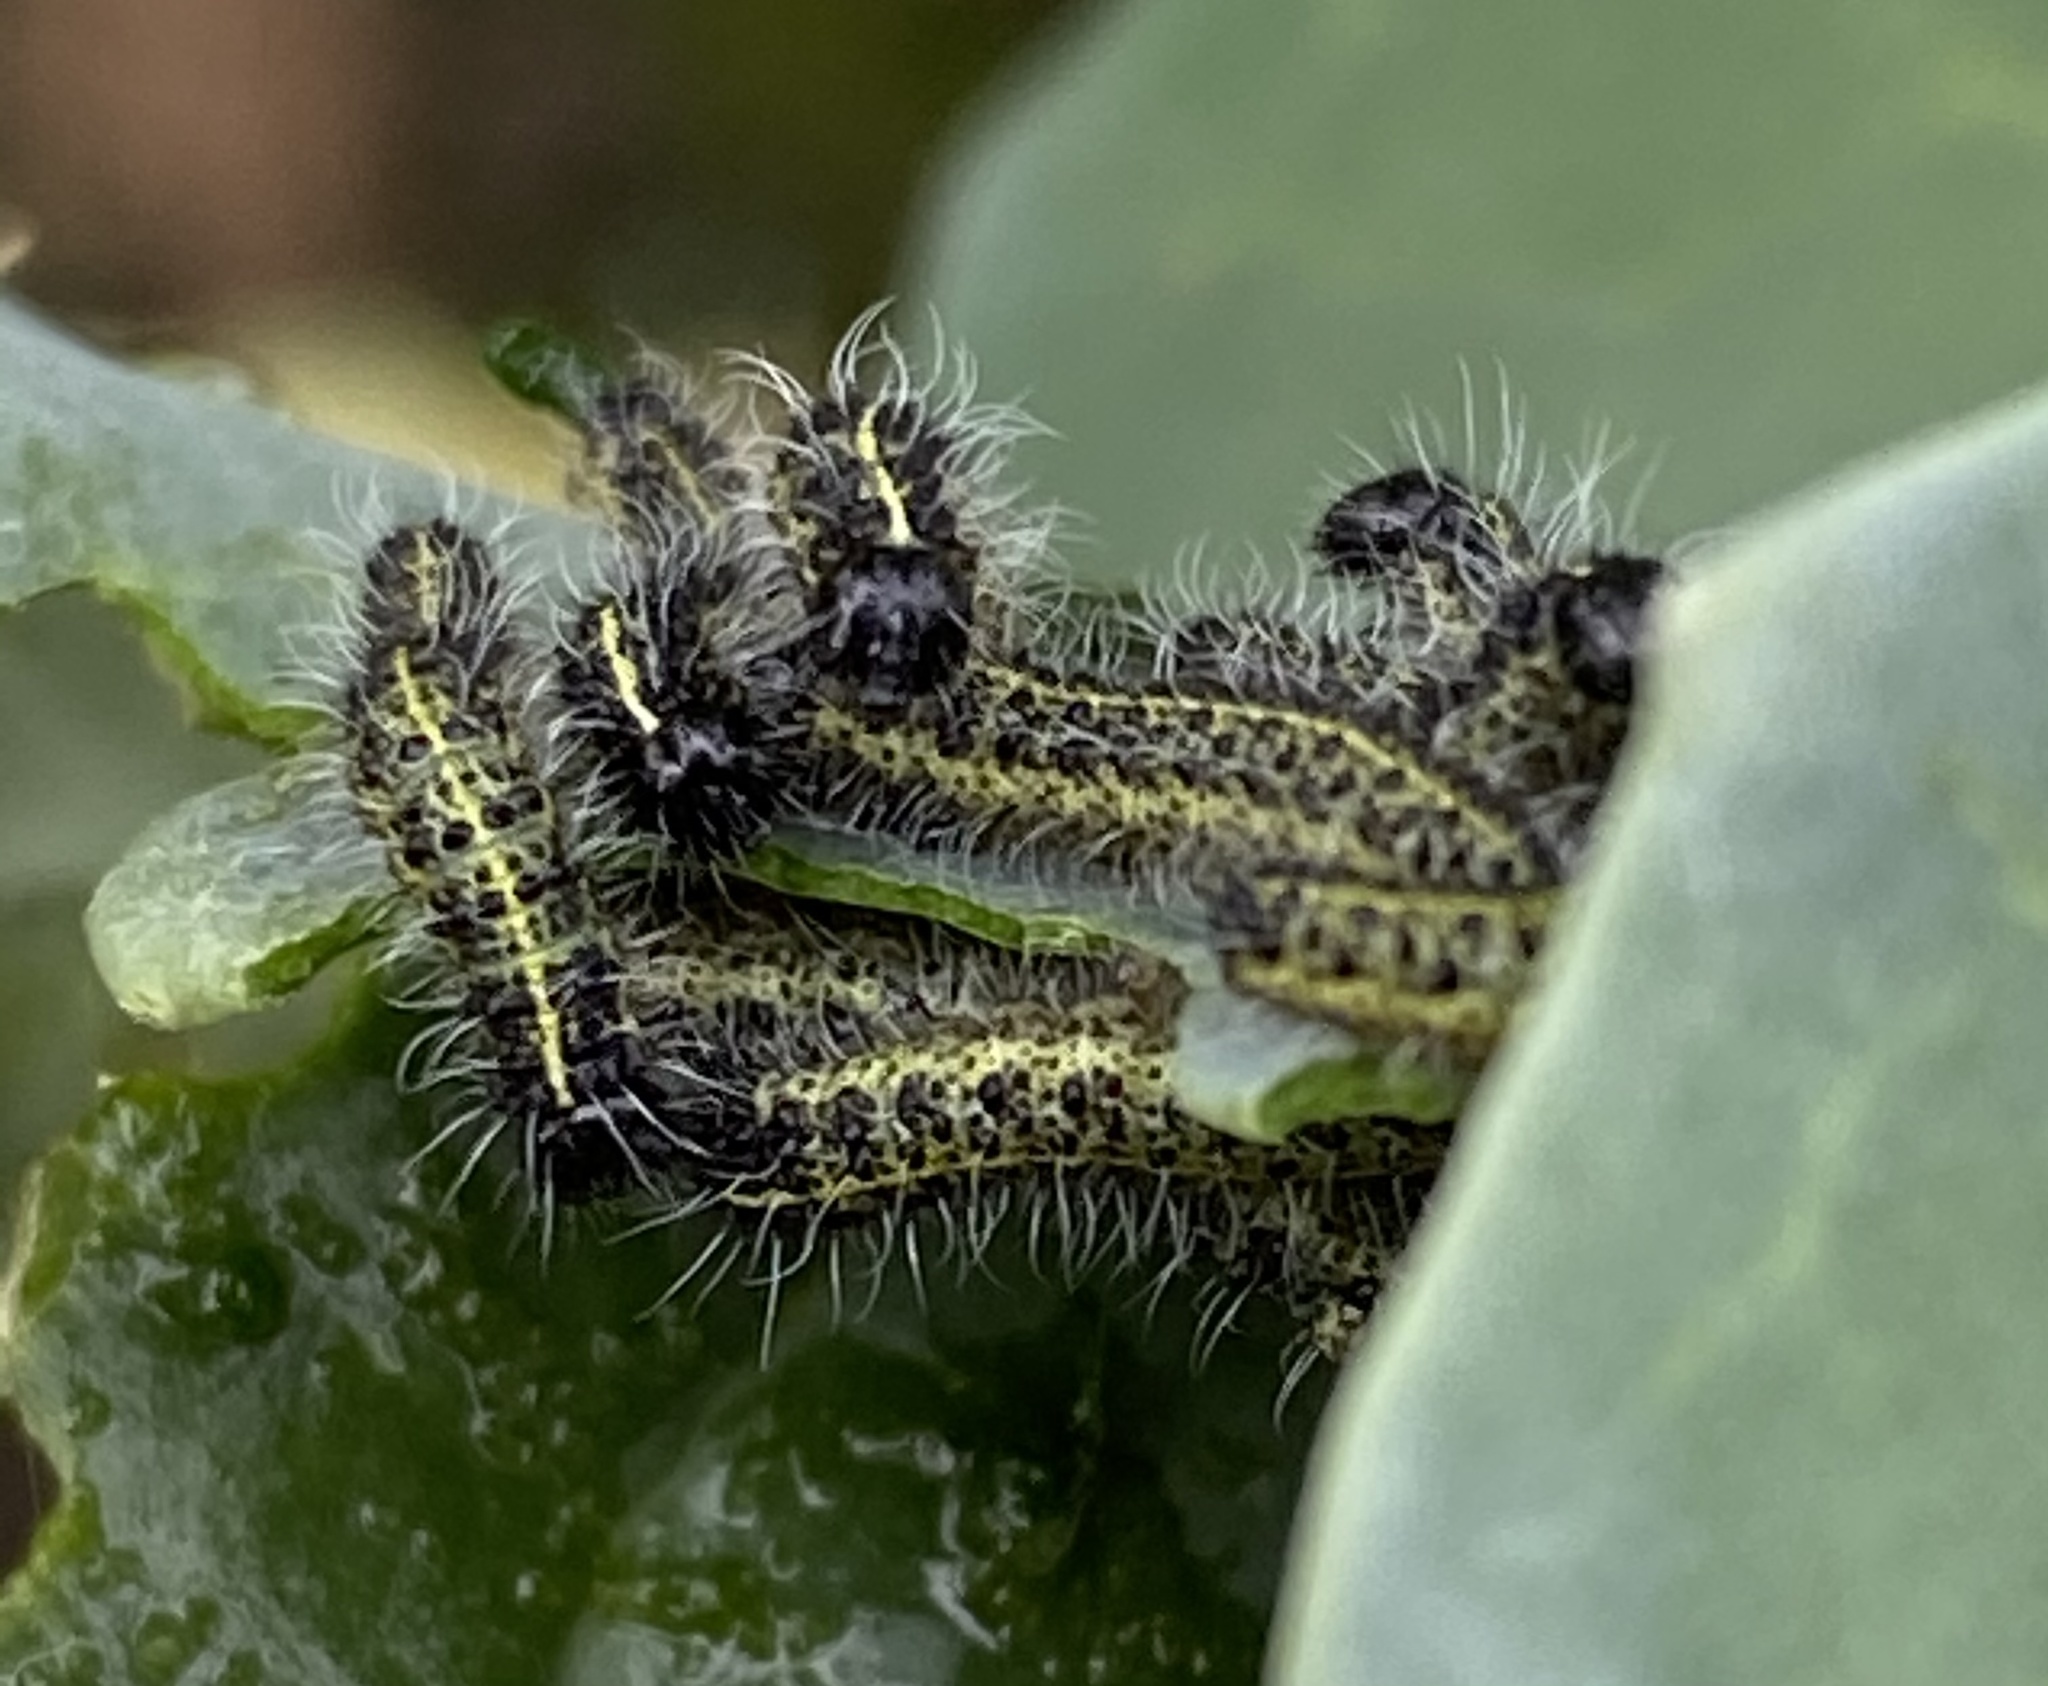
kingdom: Animalia
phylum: Arthropoda
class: Insecta
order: Lepidoptera
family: Pieridae
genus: Pieris
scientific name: Pieris brassicae
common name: Large white
